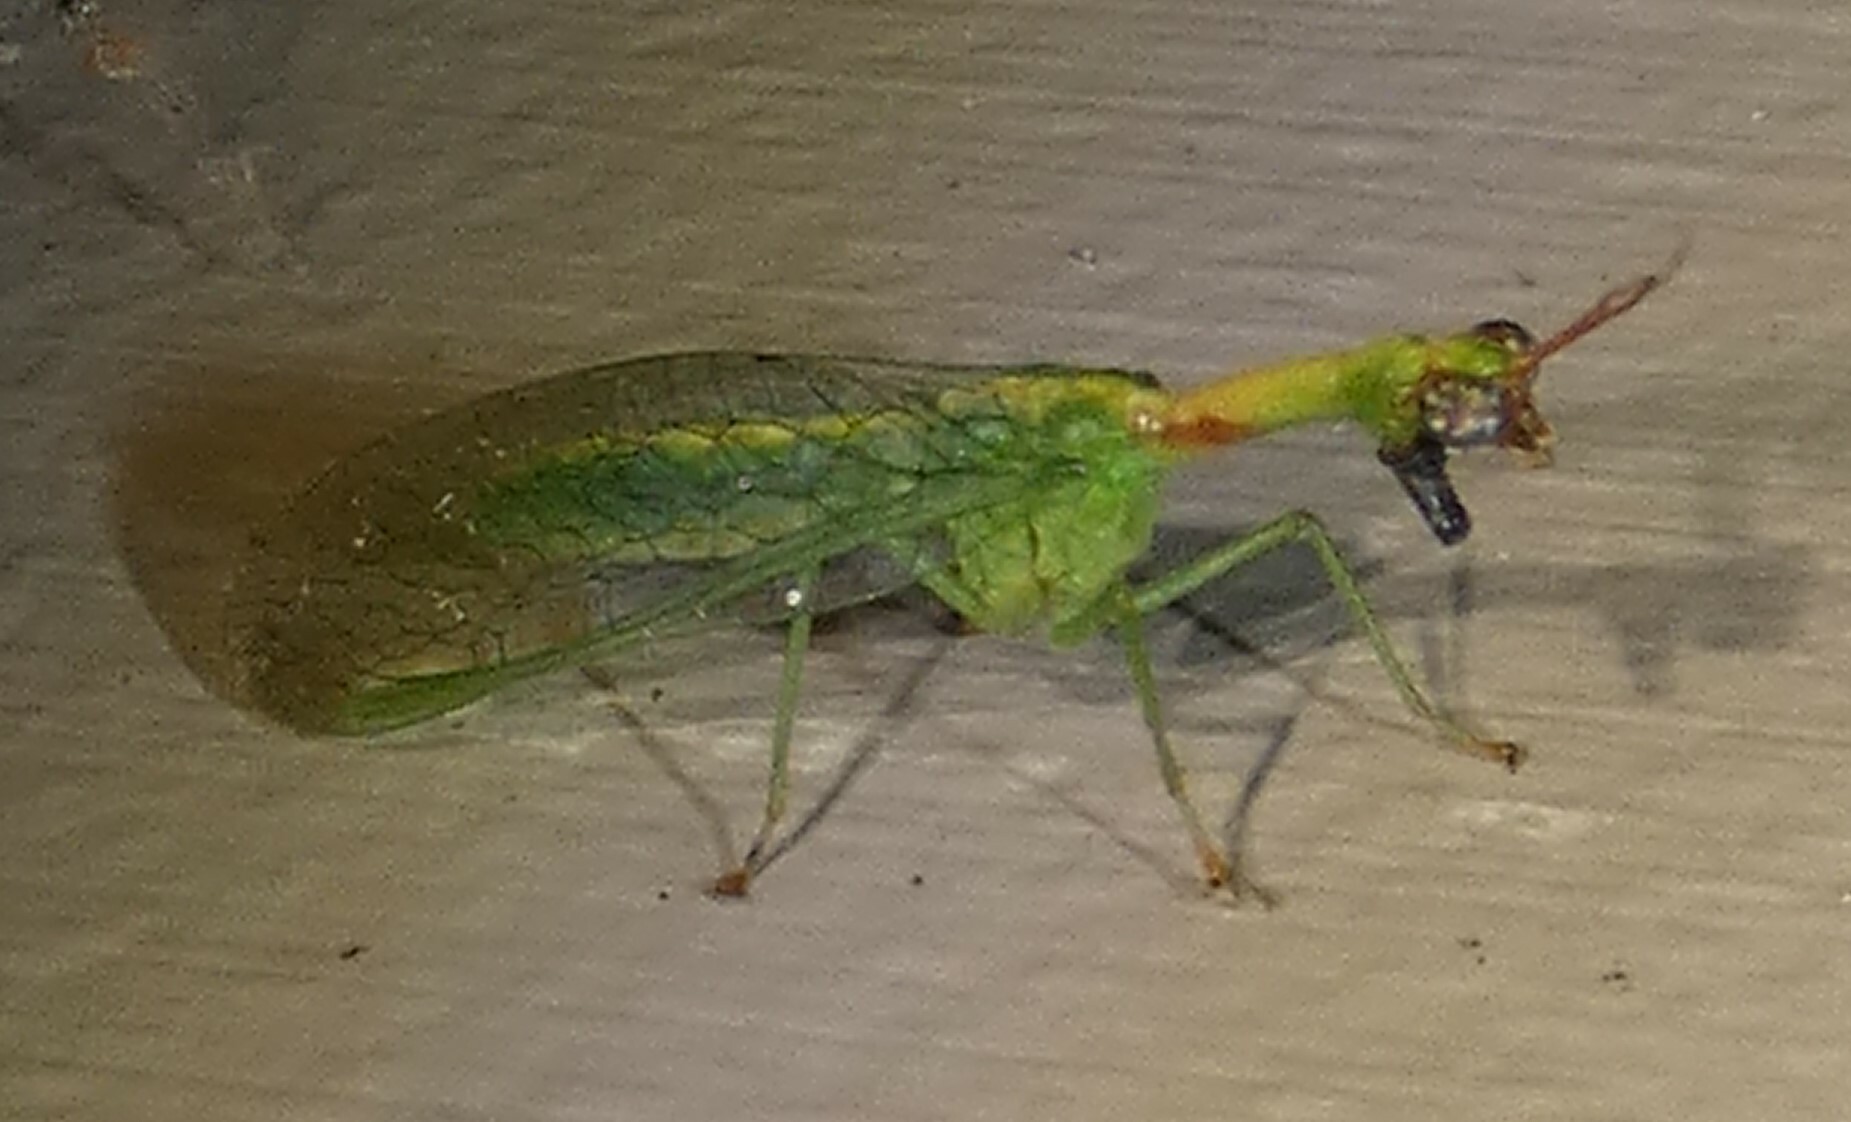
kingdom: Animalia
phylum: Arthropoda
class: Insecta
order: Neuroptera
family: Mantispidae
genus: Zeugomantispa
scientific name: Zeugomantispa minuta
